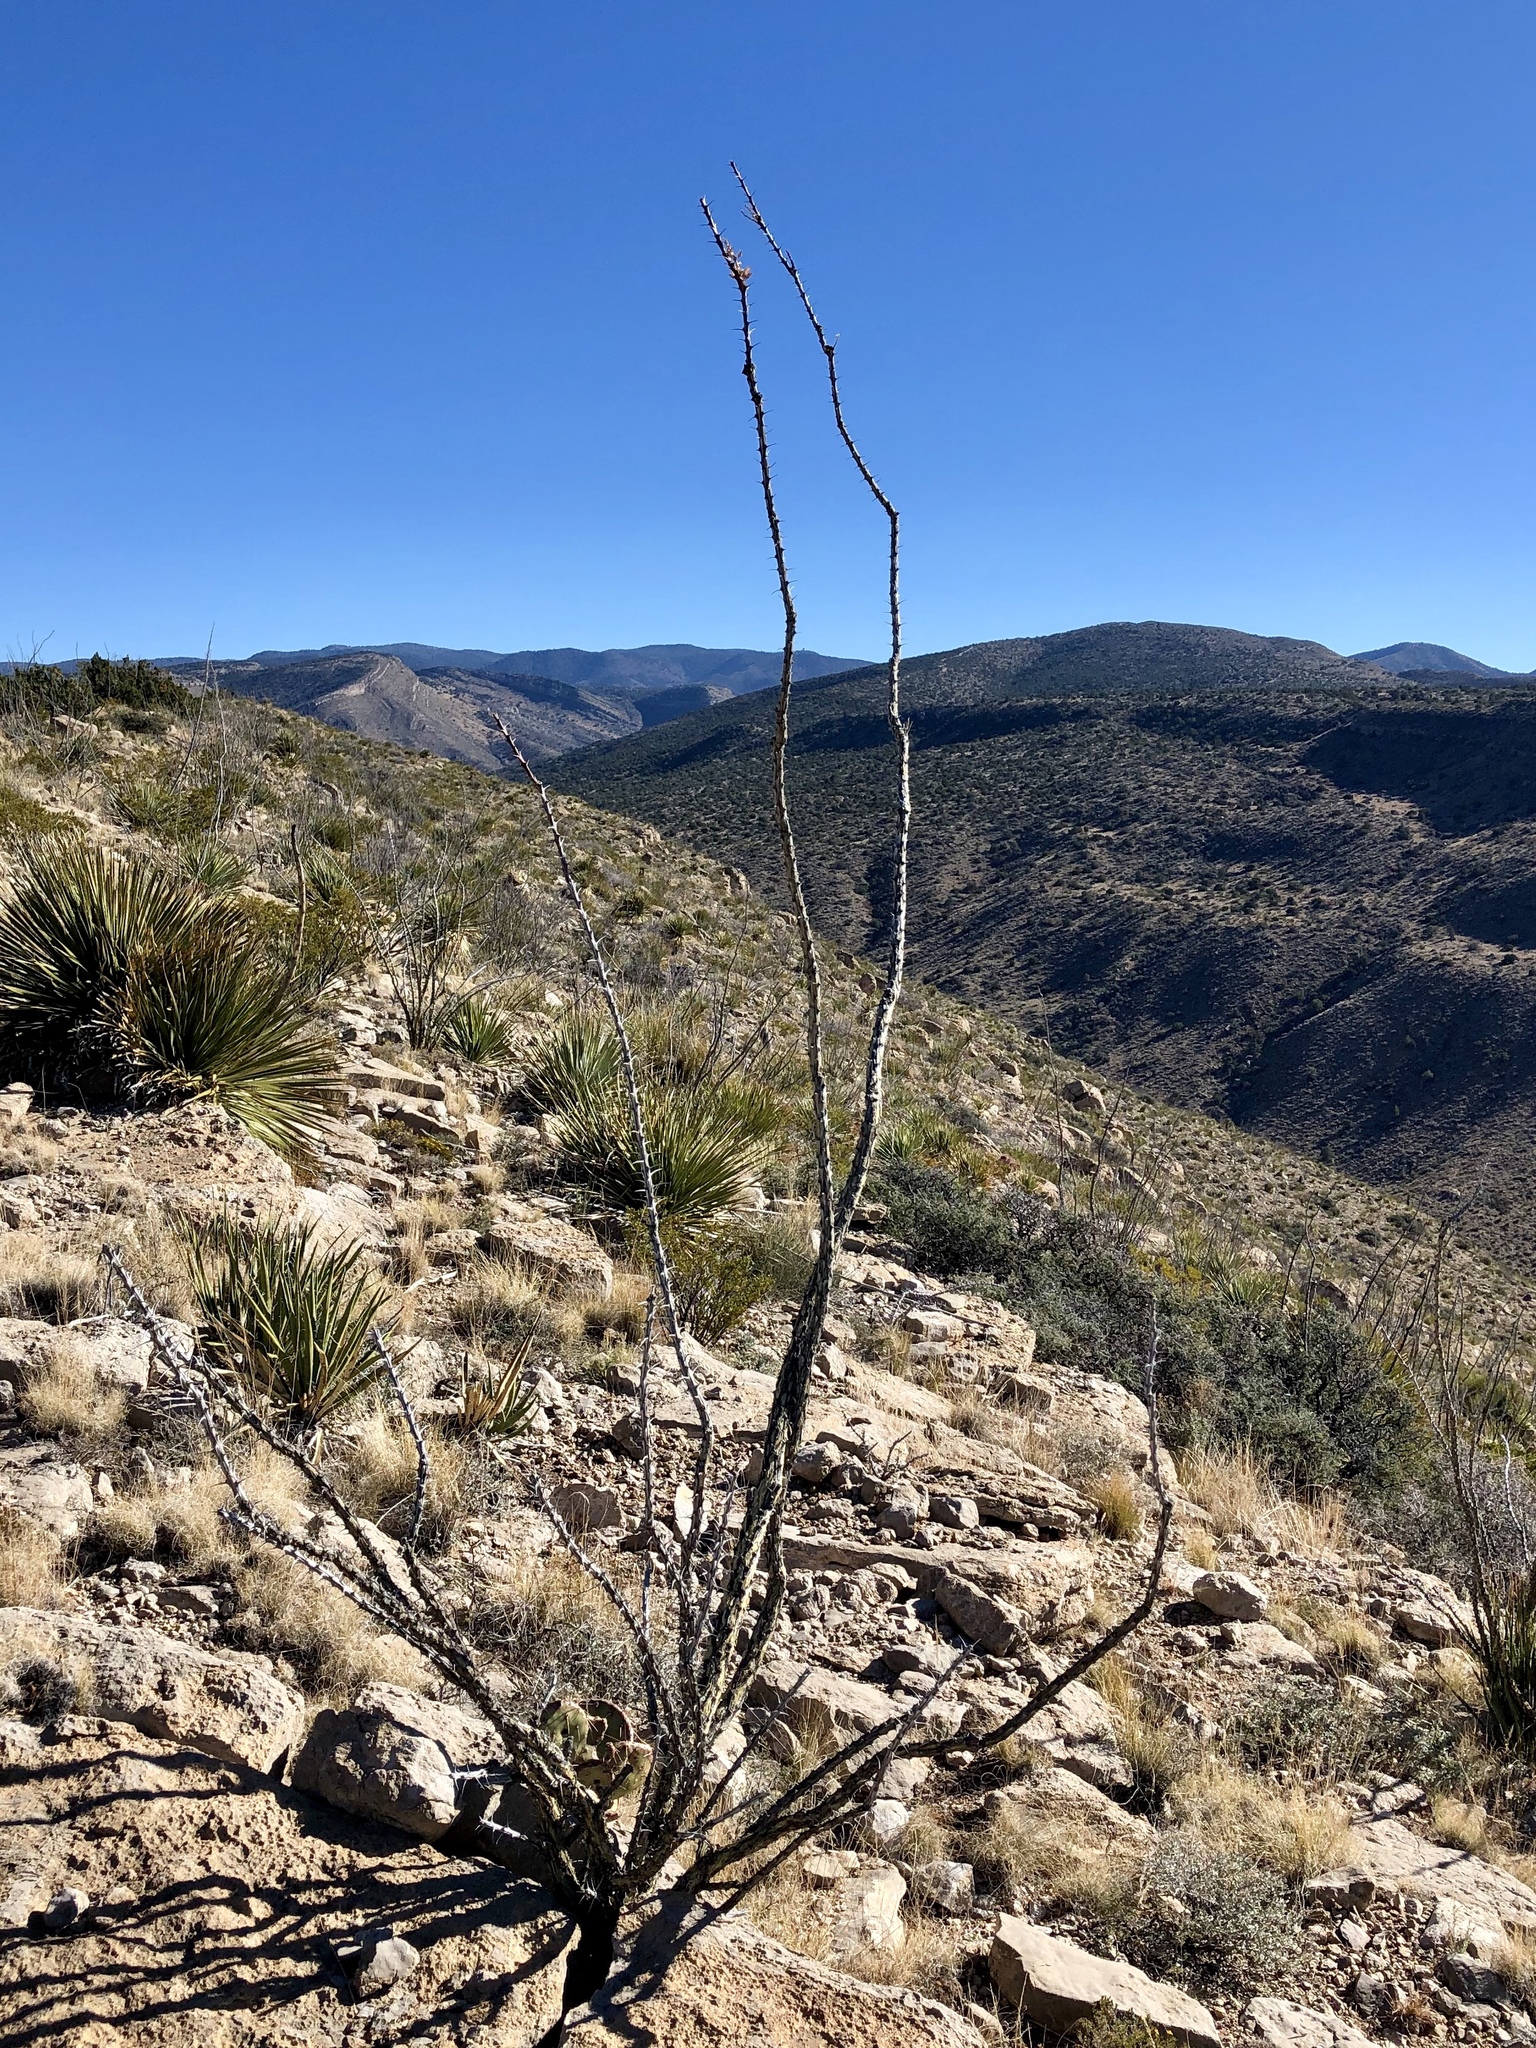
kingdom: Plantae
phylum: Tracheophyta
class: Magnoliopsida
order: Ericales
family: Fouquieriaceae
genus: Fouquieria
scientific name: Fouquieria splendens
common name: Vine-cactus
